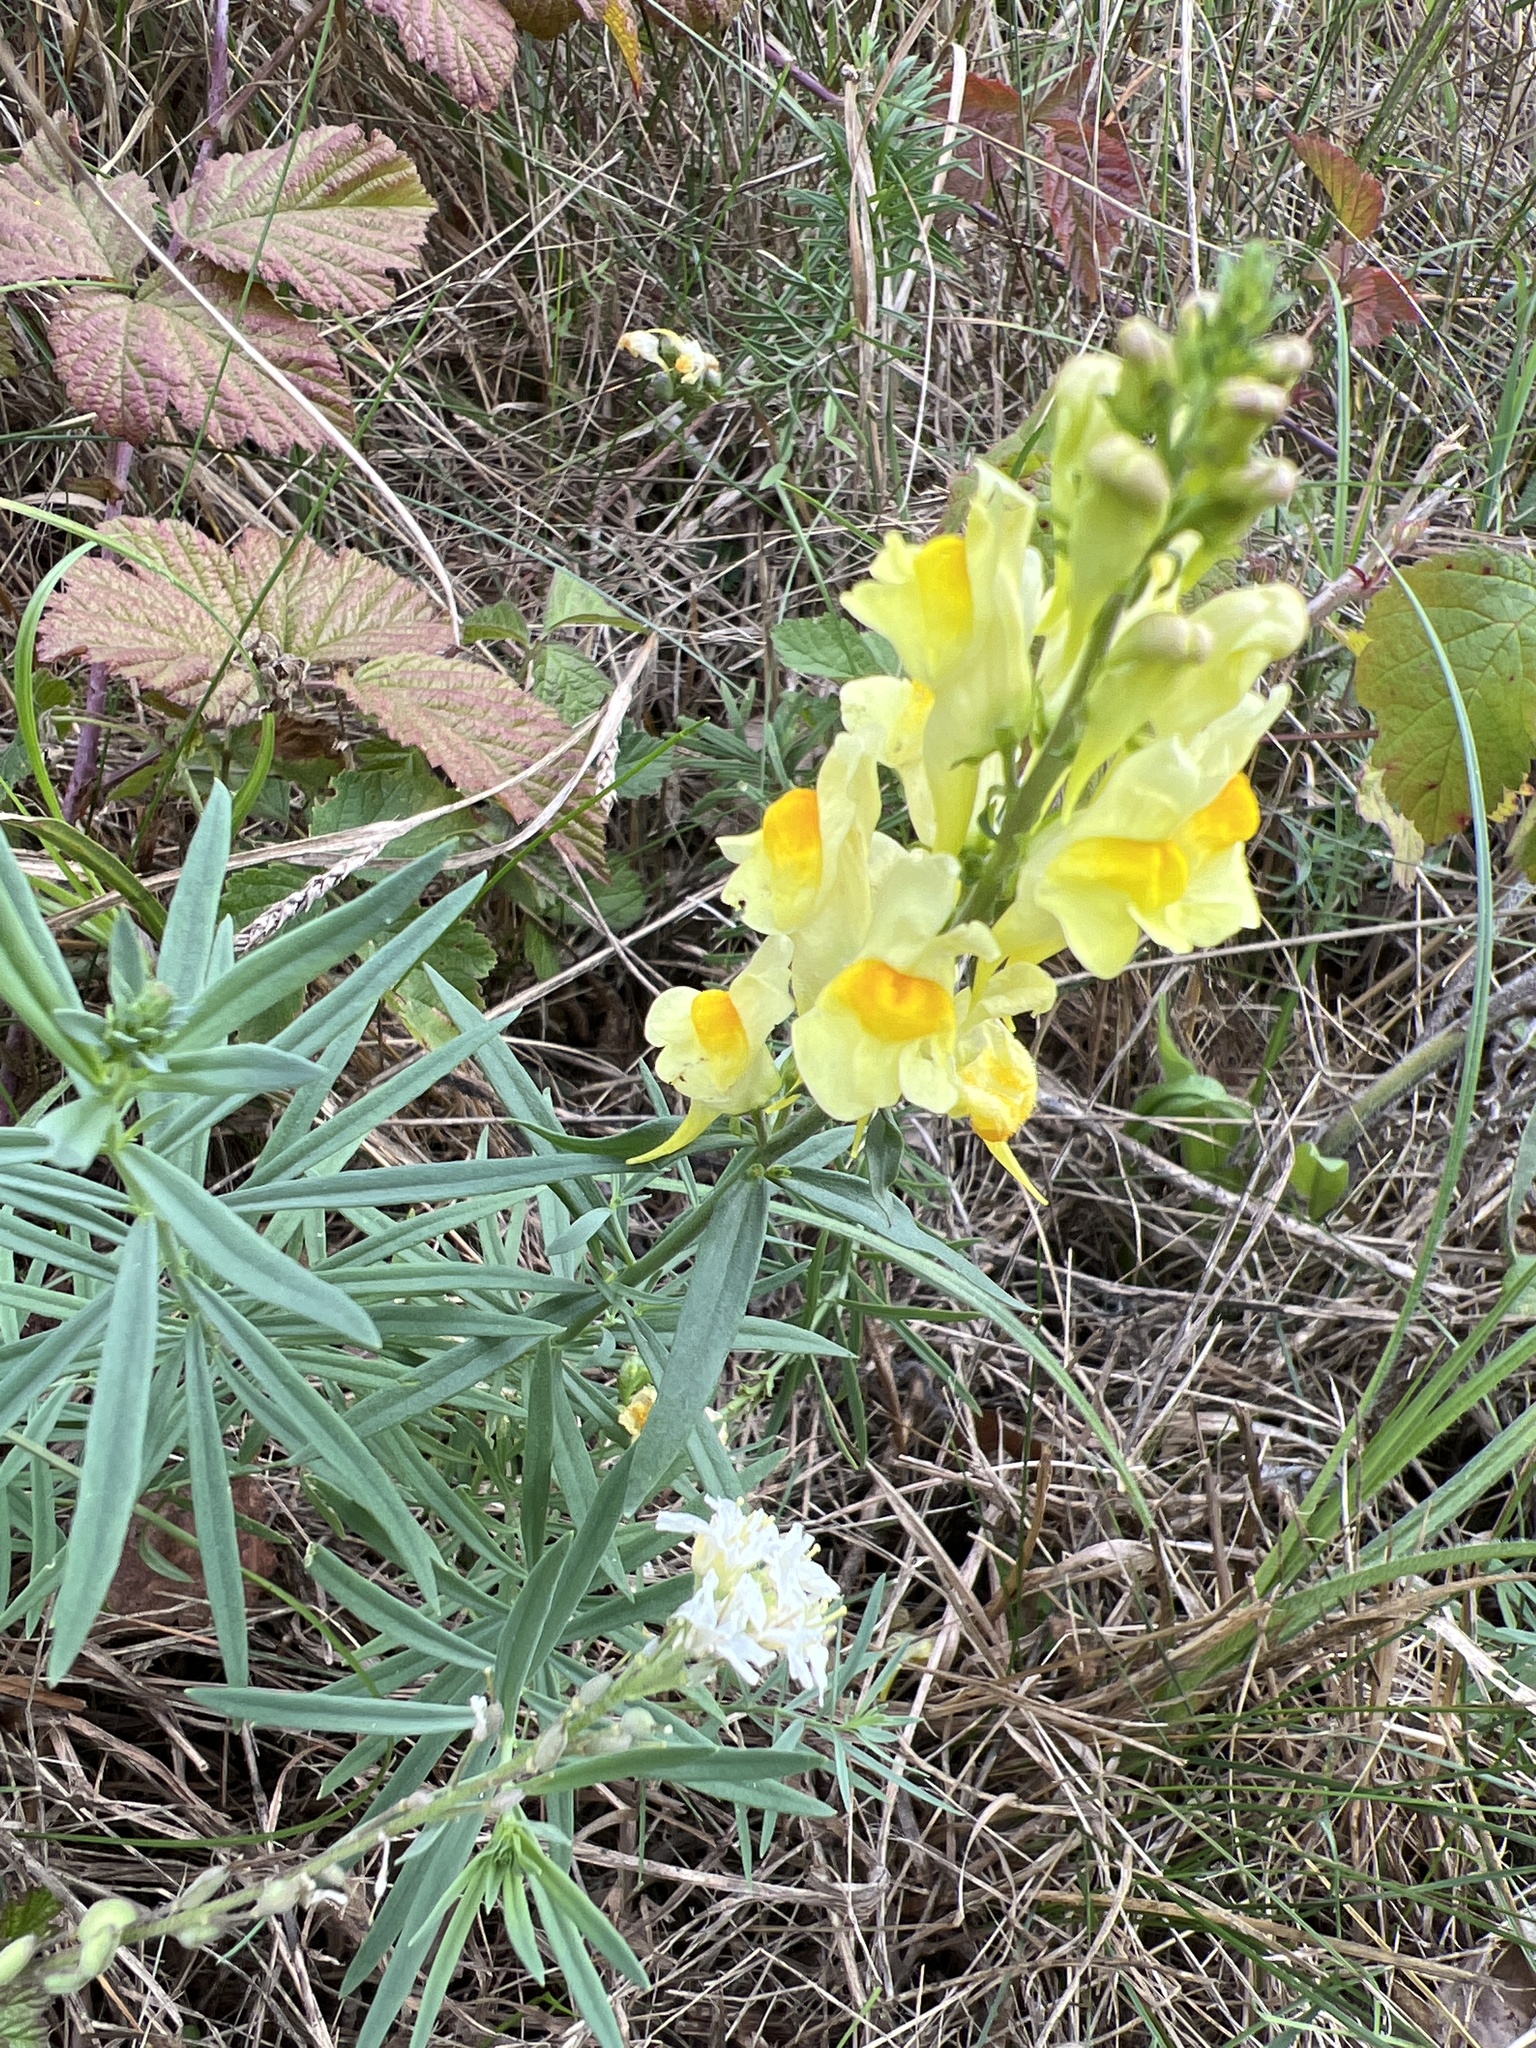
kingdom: Plantae
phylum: Tracheophyta
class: Magnoliopsida
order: Lamiales
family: Plantaginaceae
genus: Linaria
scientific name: Linaria vulgaris
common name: Butter and eggs
